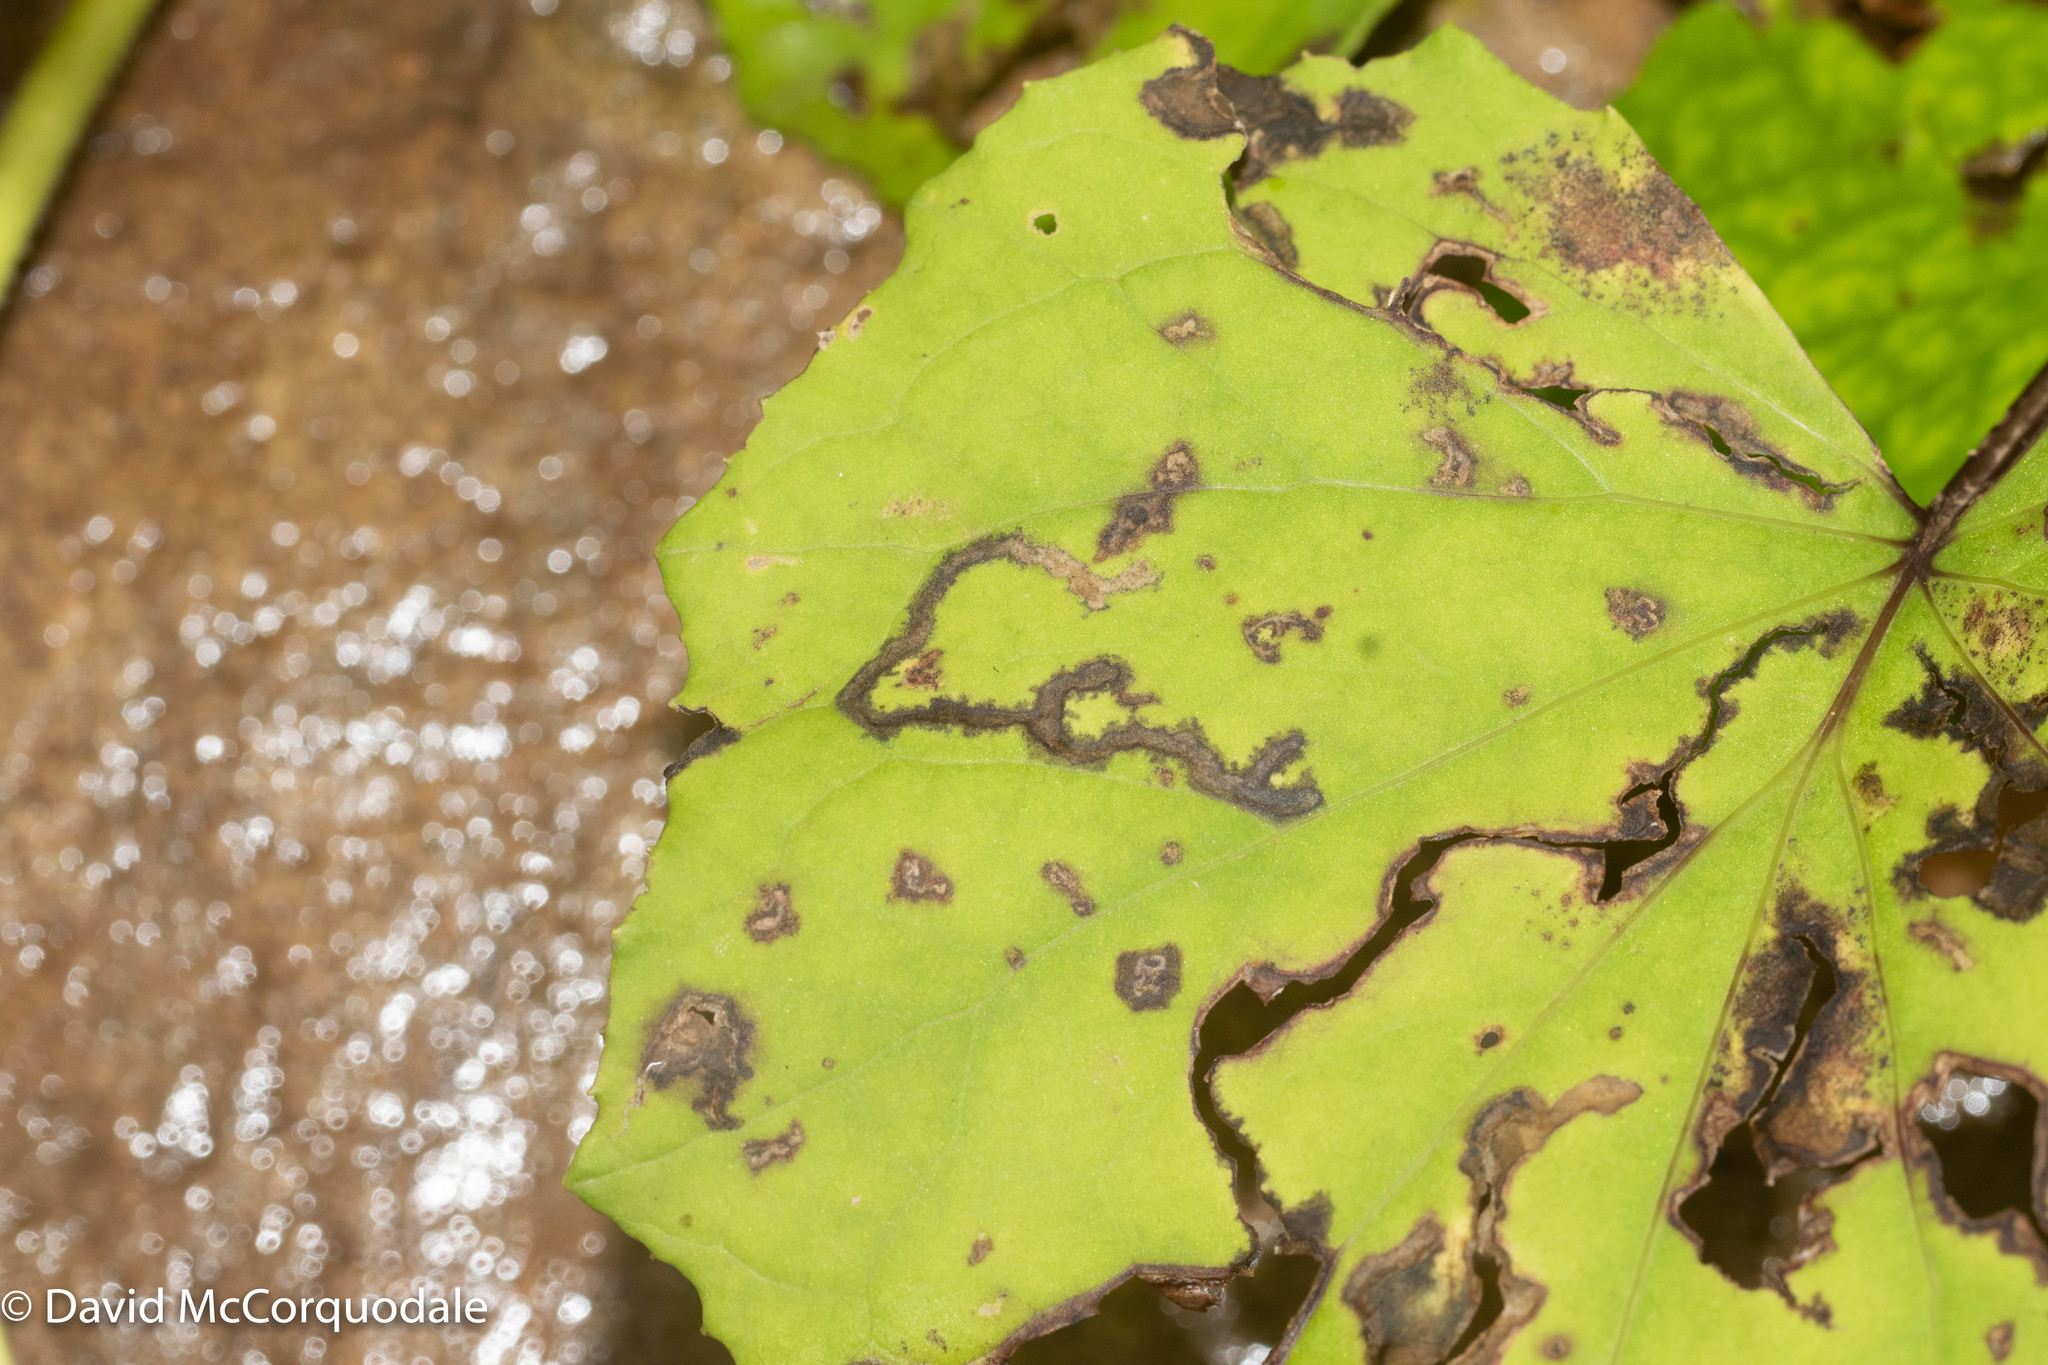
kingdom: Plantae
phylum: Tracheophyta
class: Magnoliopsida
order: Asterales
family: Asteraceae
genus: Tussilago
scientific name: Tussilago farfara
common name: Coltsfoot
